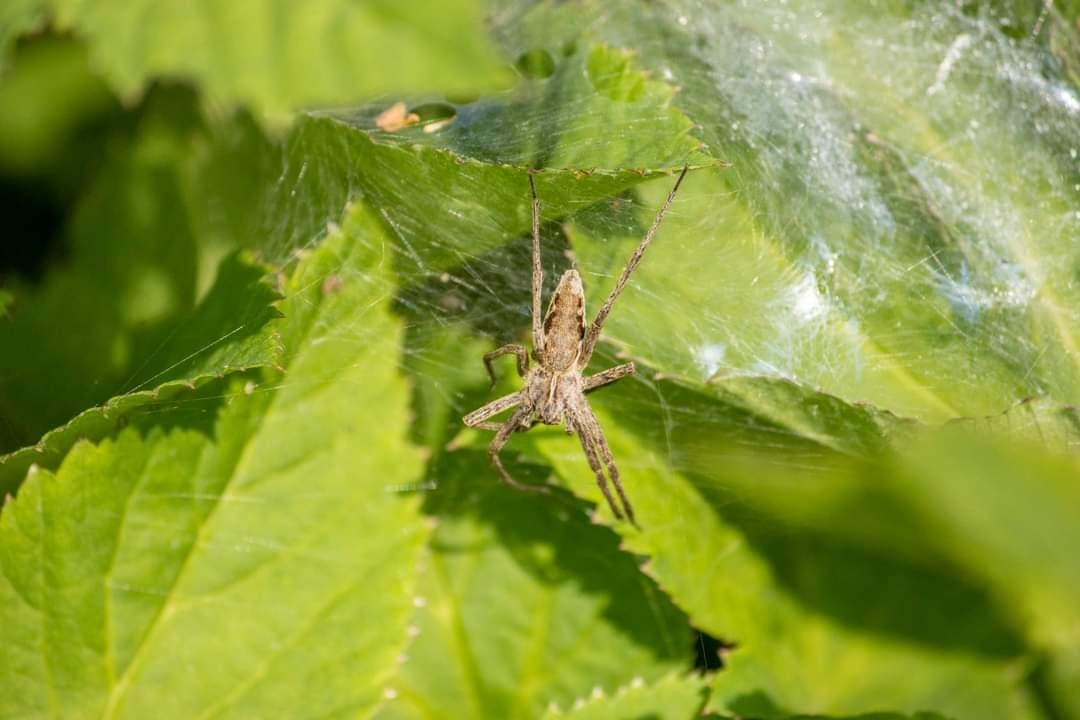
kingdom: Animalia
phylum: Arthropoda
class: Arachnida
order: Araneae
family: Pisauridae
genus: Pisaura
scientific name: Pisaura mirabilis
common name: Tent spider
